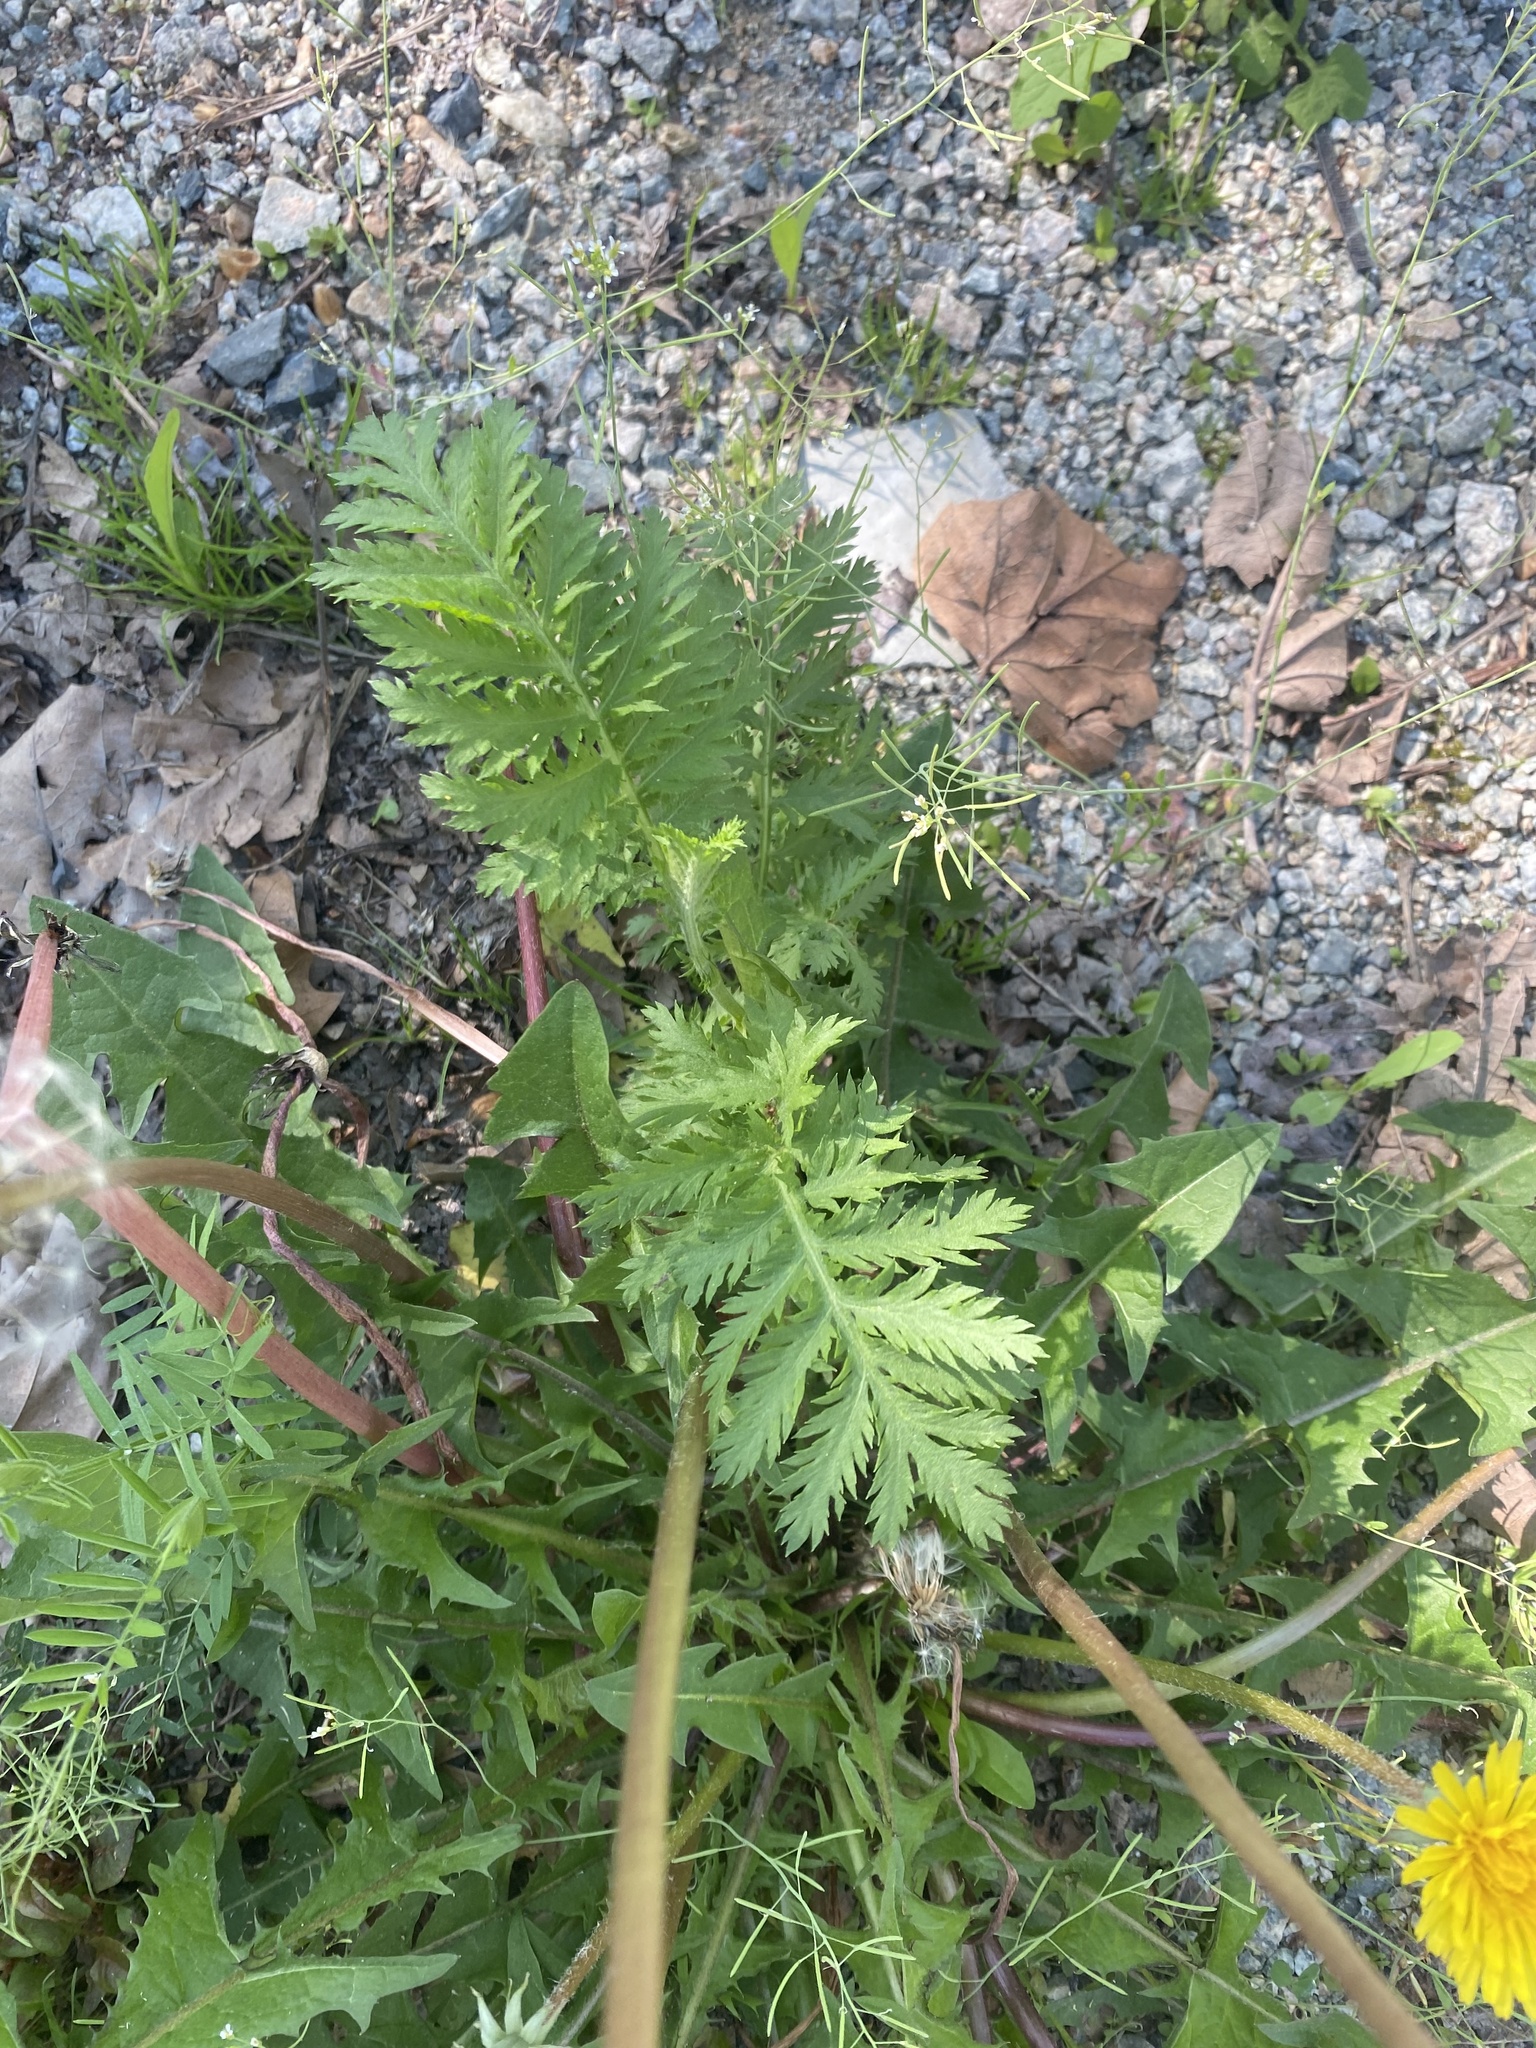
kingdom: Plantae
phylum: Tracheophyta
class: Magnoliopsida
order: Asterales
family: Asteraceae
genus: Tanacetum
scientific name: Tanacetum vulgare
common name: Common tansy
